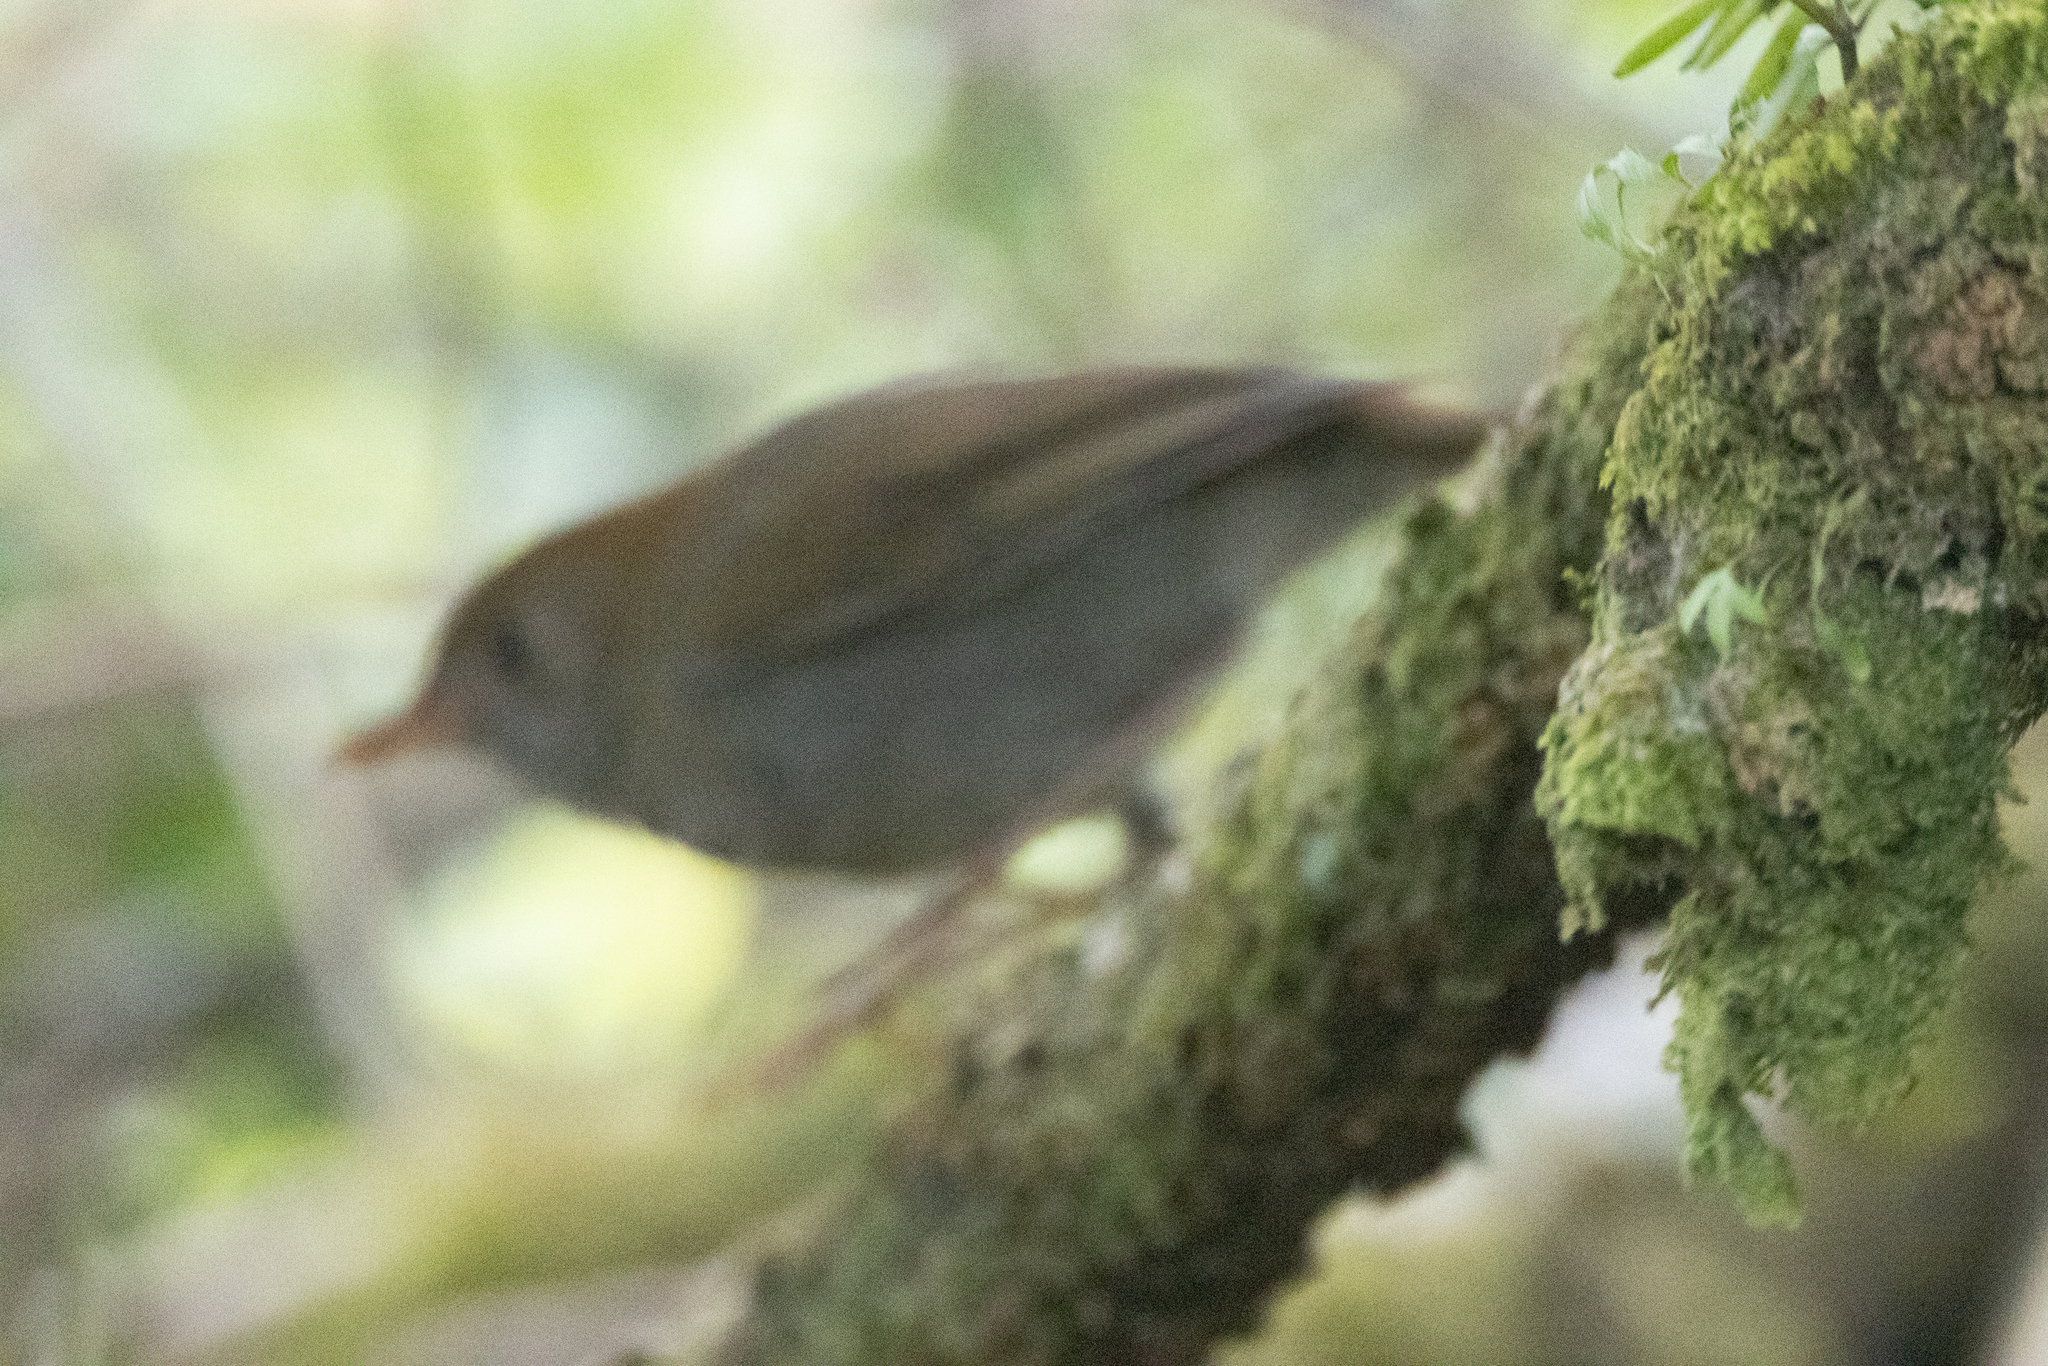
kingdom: Animalia
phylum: Chordata
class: Aves
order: Passeriformes
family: Turdidae
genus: Catharus
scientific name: Catharus frantzii
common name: Ruddy-capped nightingale-thrush
